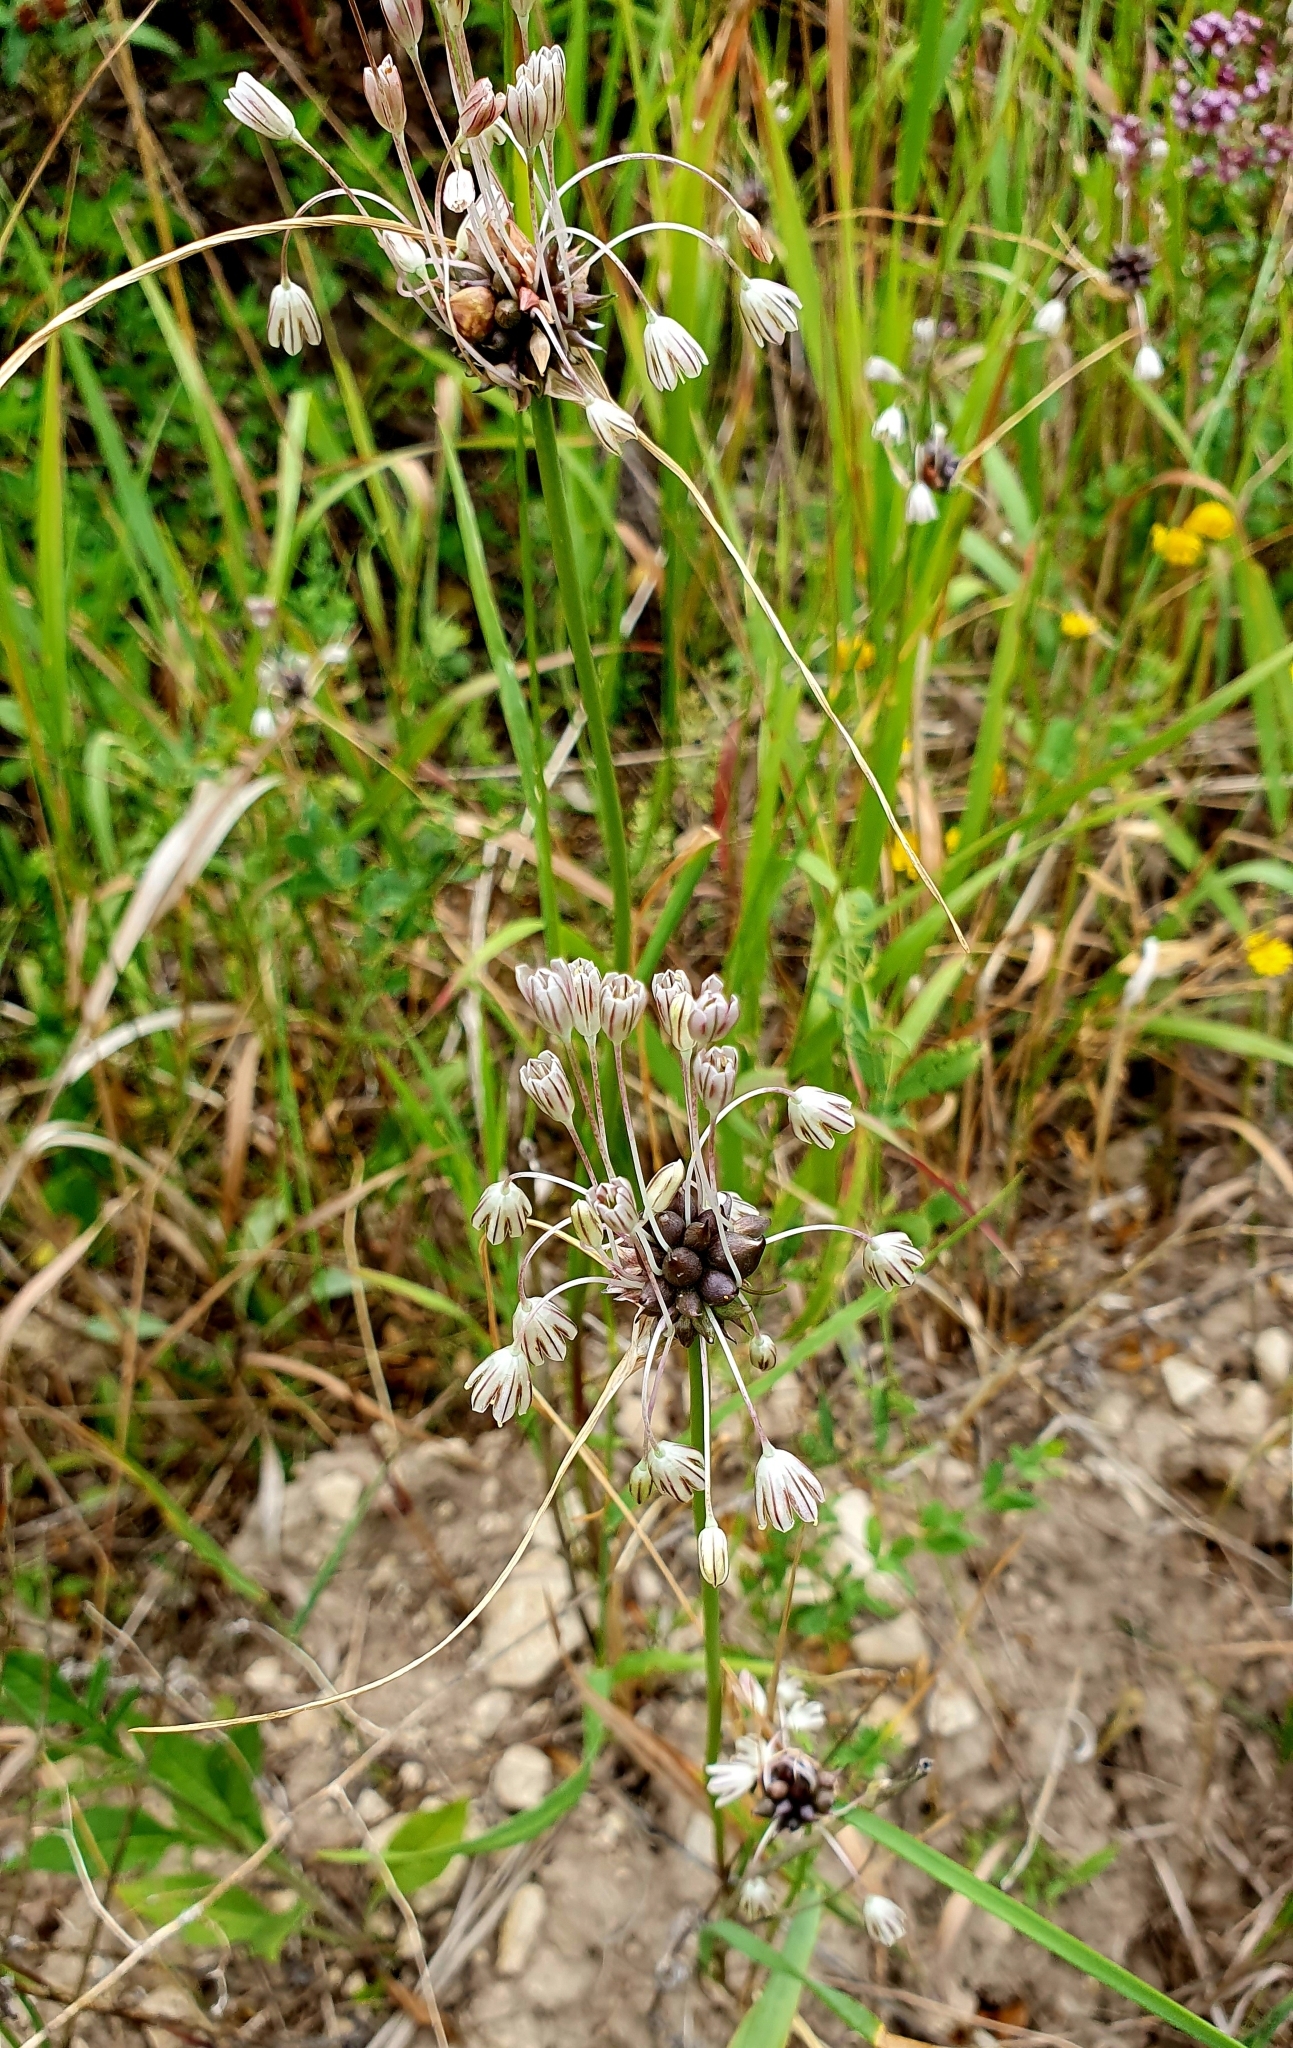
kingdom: Plantae
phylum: Tracheophyta
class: Liliopsida
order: Asparagales
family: Amaryllidaceae
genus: Allium
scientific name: Allium oleraceum
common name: Field garlic
